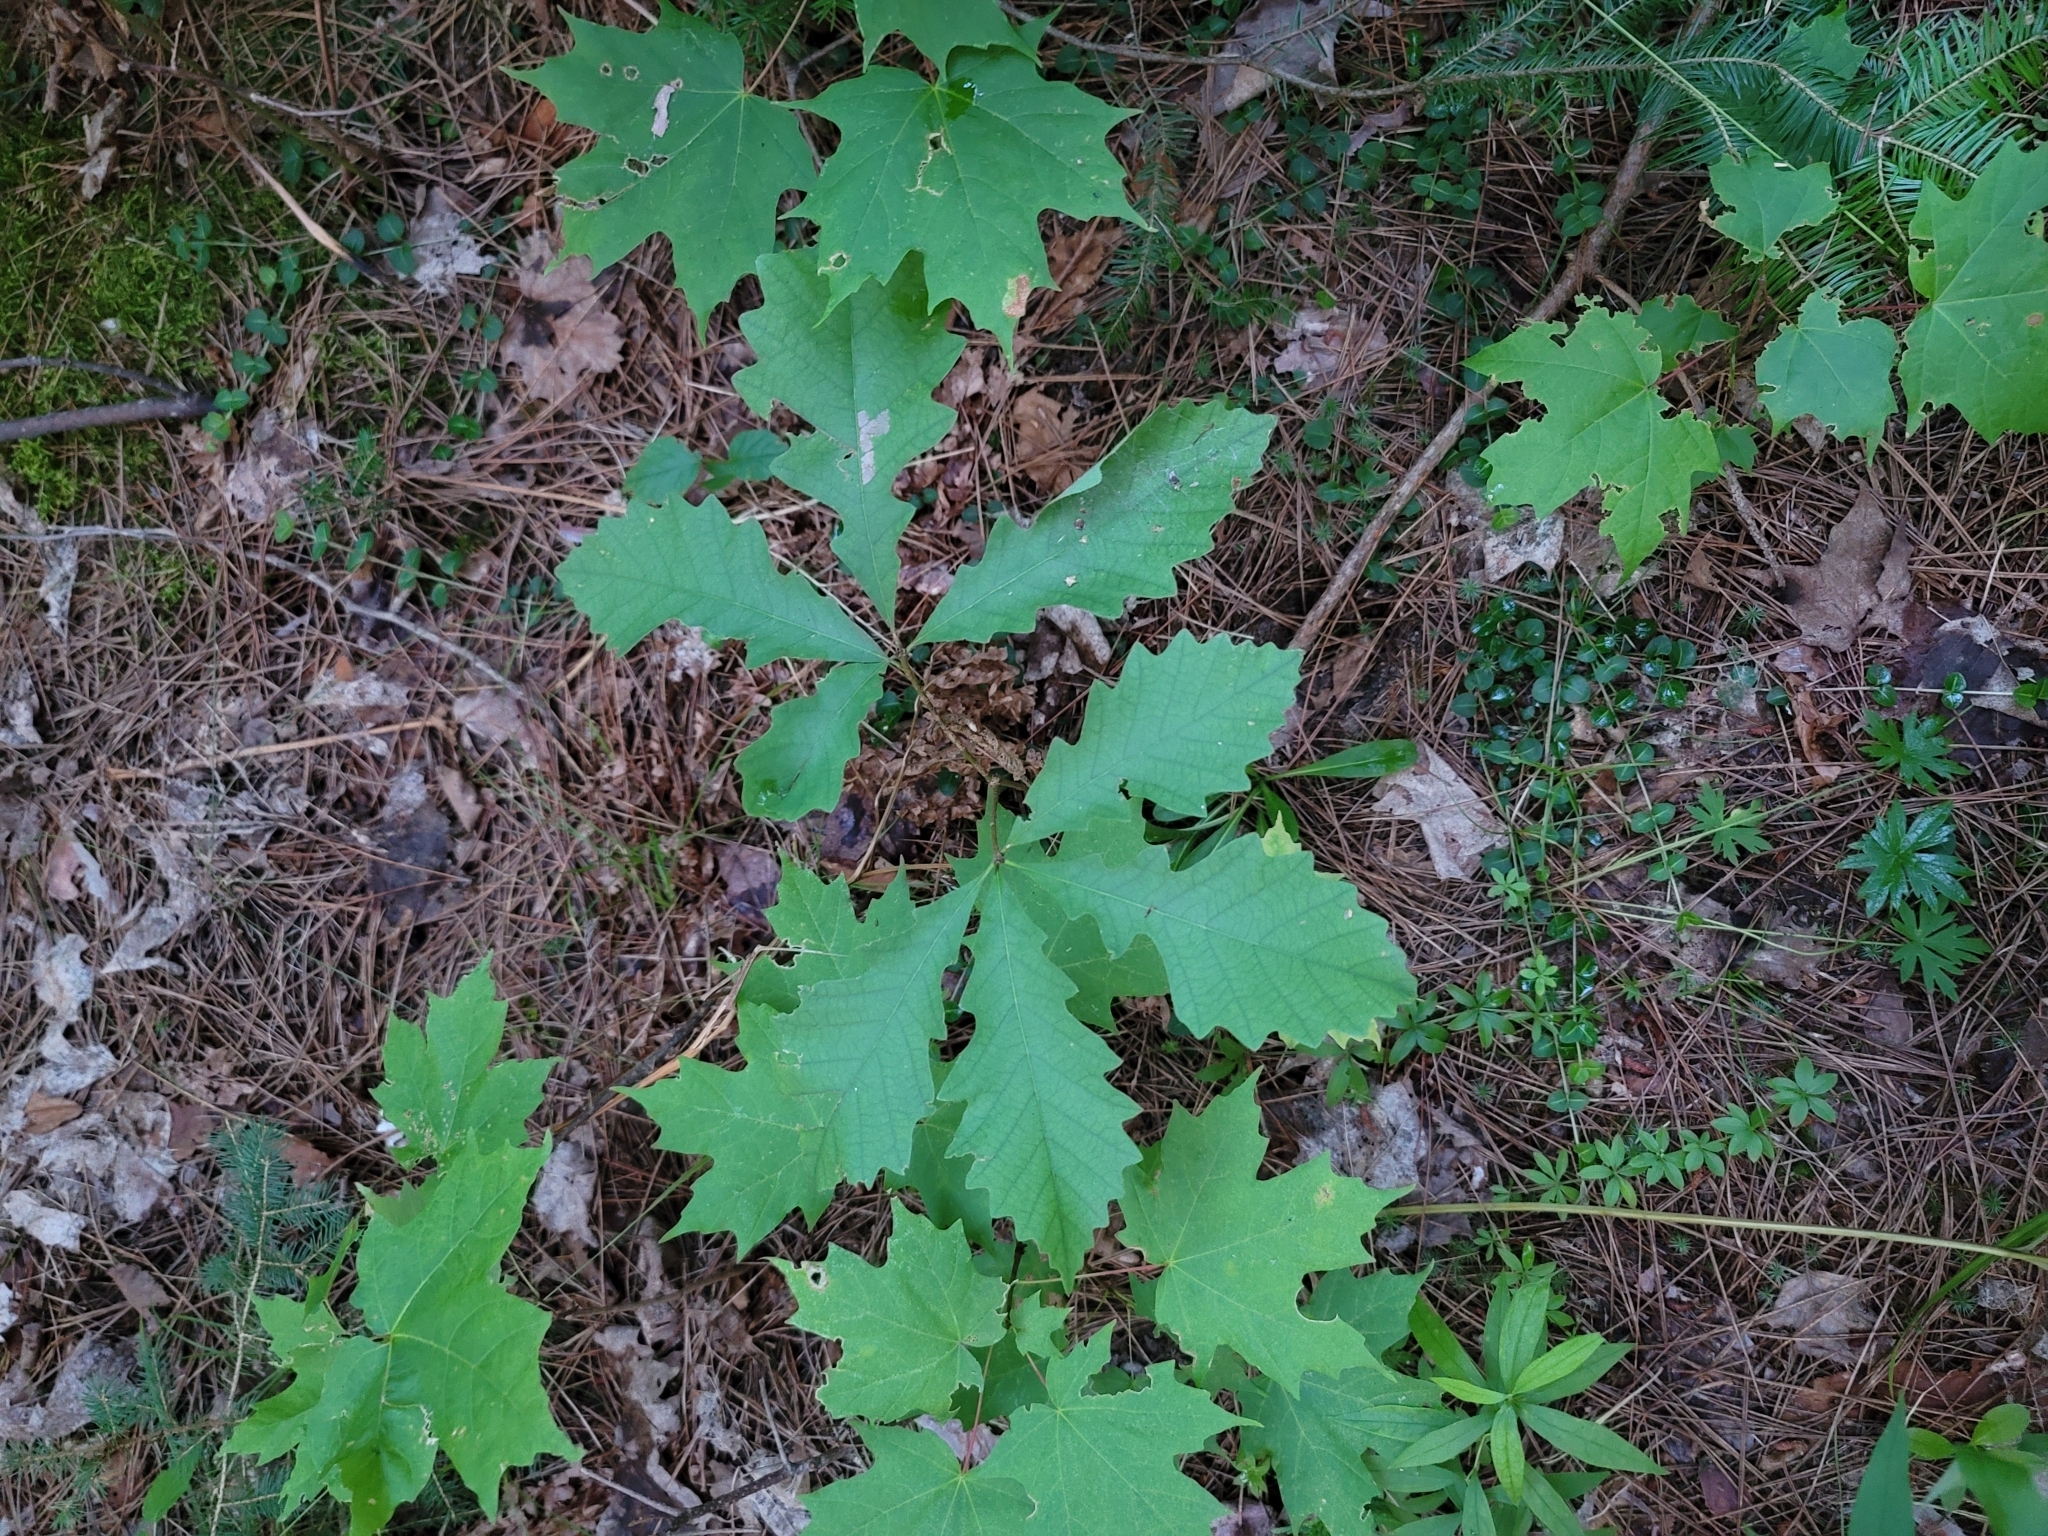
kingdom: Plantae
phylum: Tracheophyta
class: Magnoliopsida
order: Fagales
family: Fagaceae
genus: Quercus
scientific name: Quercus macrocarpa
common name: Bur oak
